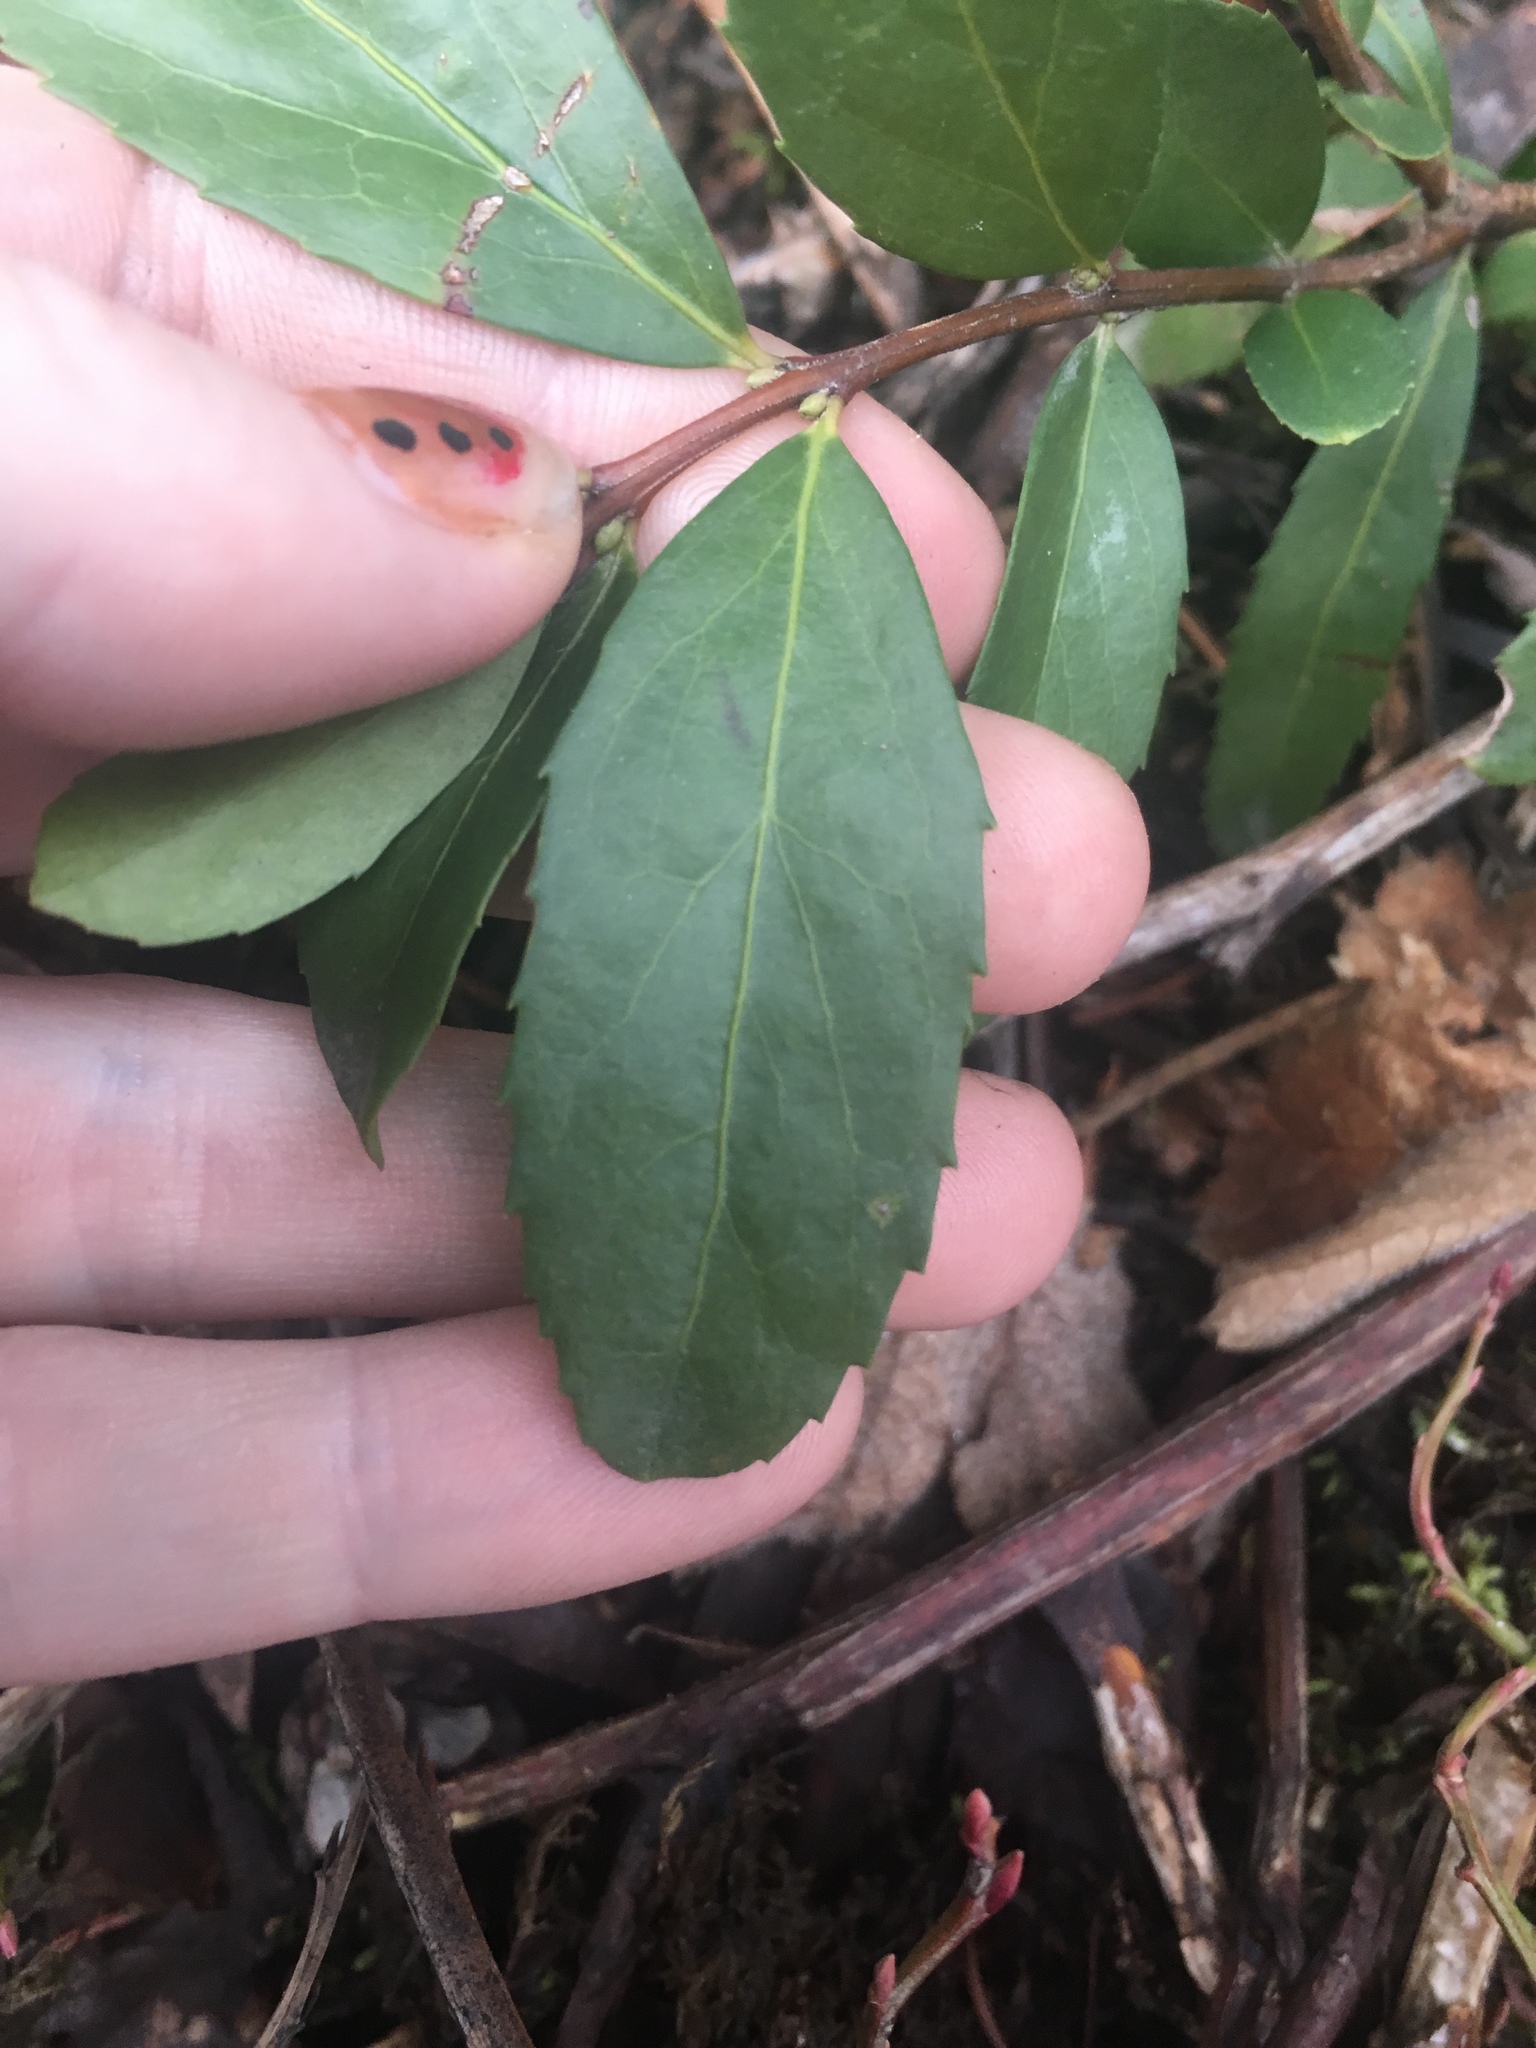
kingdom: Plantae
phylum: Tracheophyta
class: Magnoliopsida
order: Celastrales
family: Celastraceae
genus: Paxistima
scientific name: Paxistima myrsinites
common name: Mountain-lover
